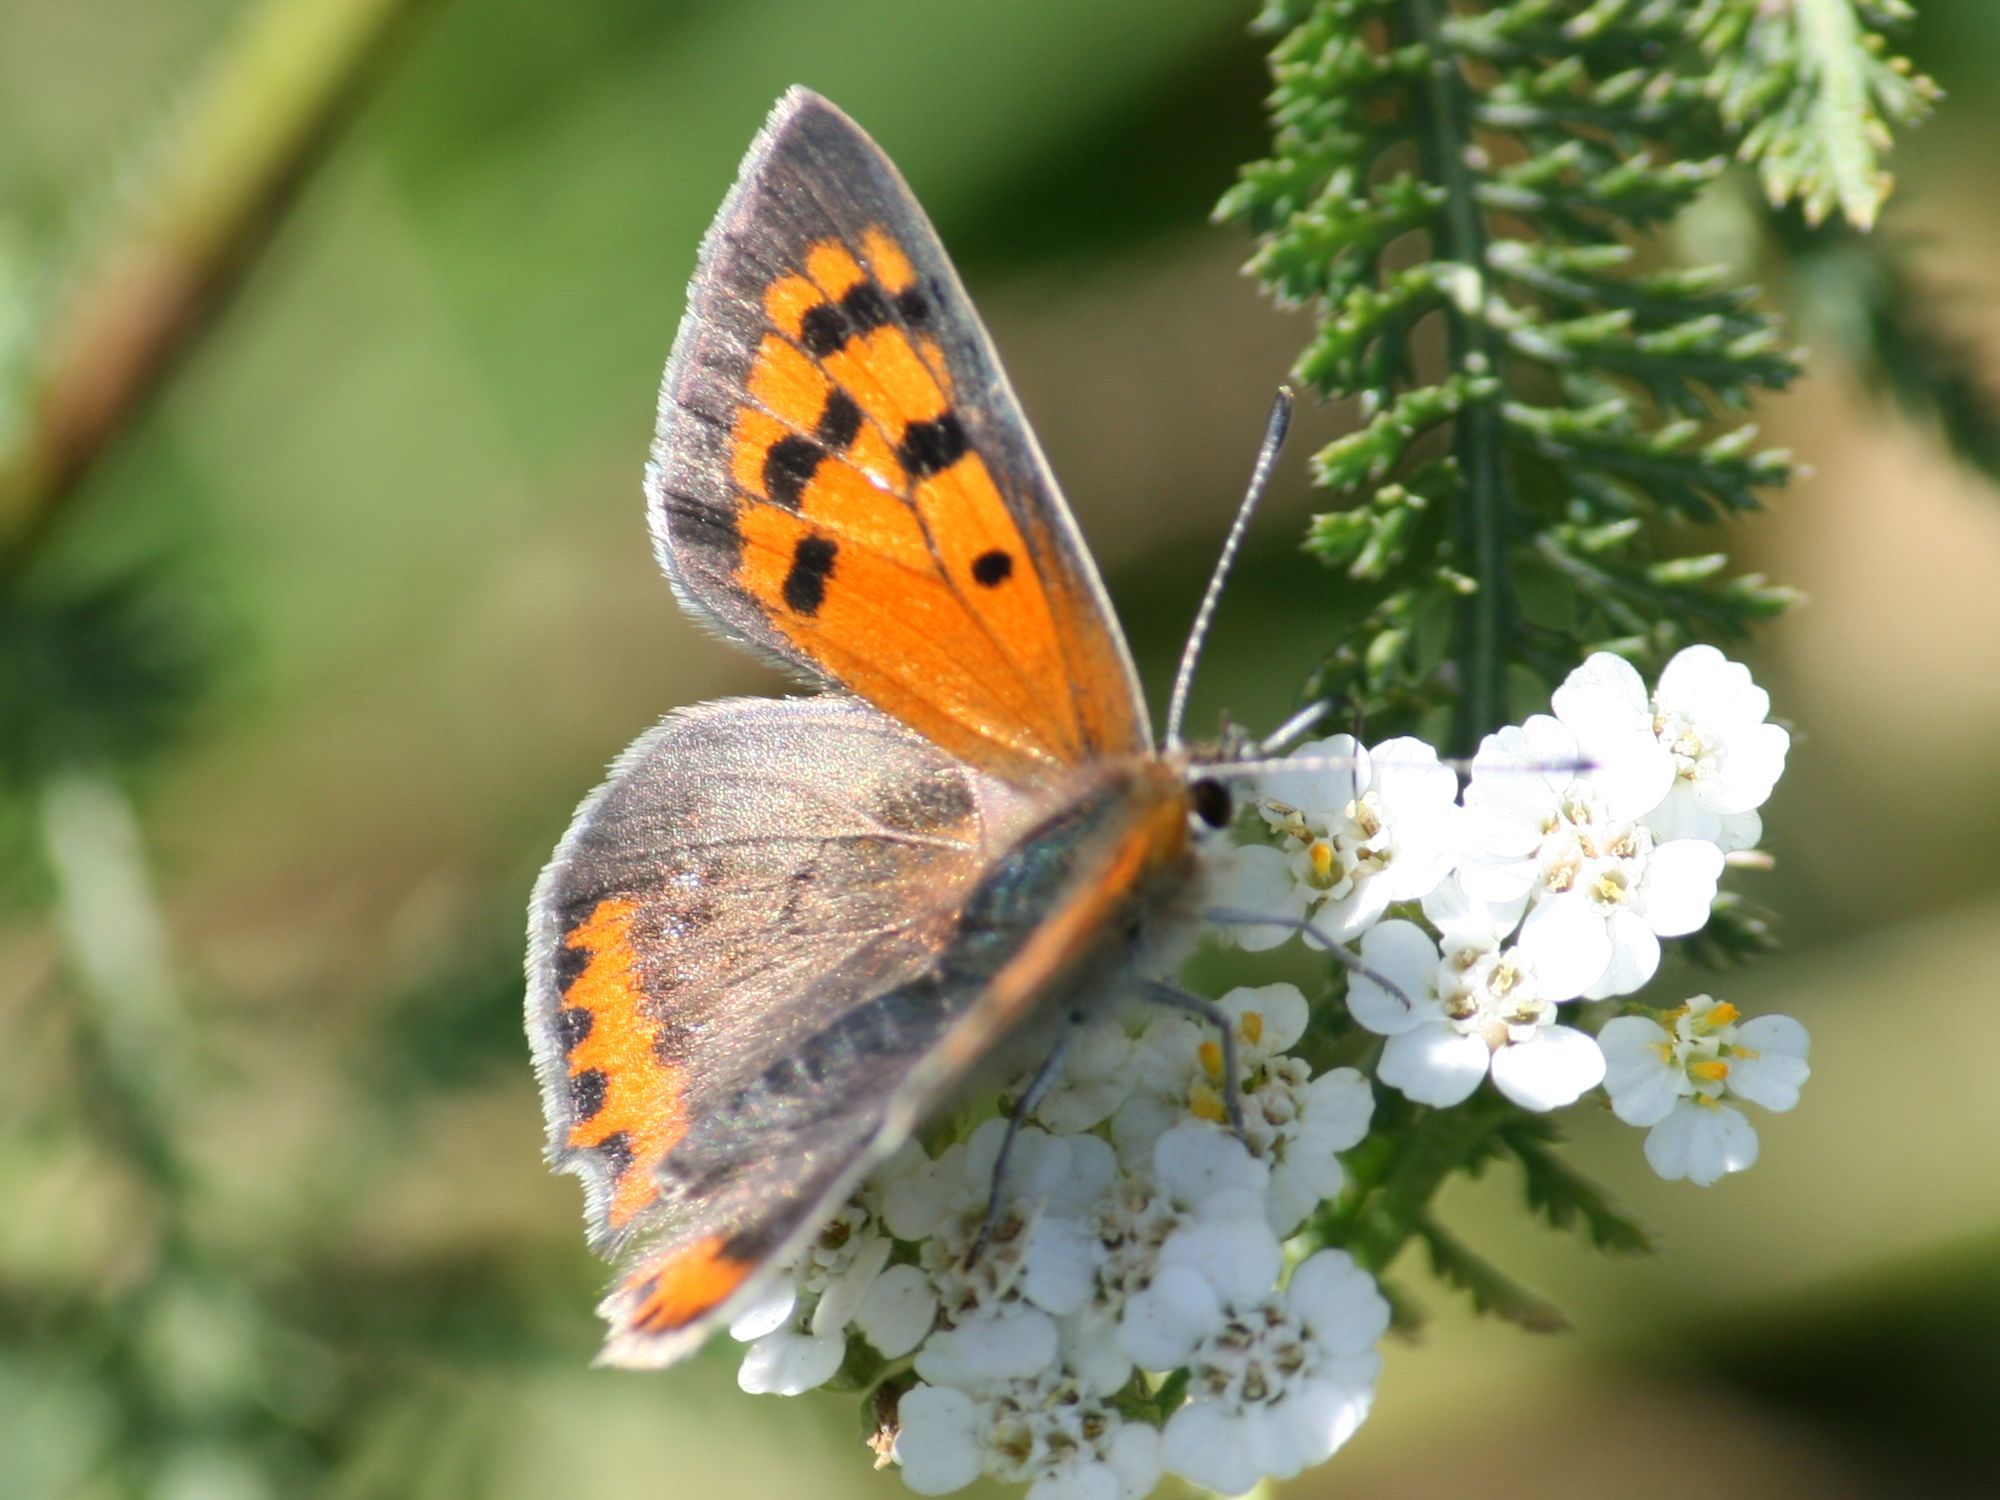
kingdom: Animalia
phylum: Arthropoda
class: Insecta
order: Lepidoptera
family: Lycaenidae
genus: Lycaena
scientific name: Lycaena phlaeas
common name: Small copper
